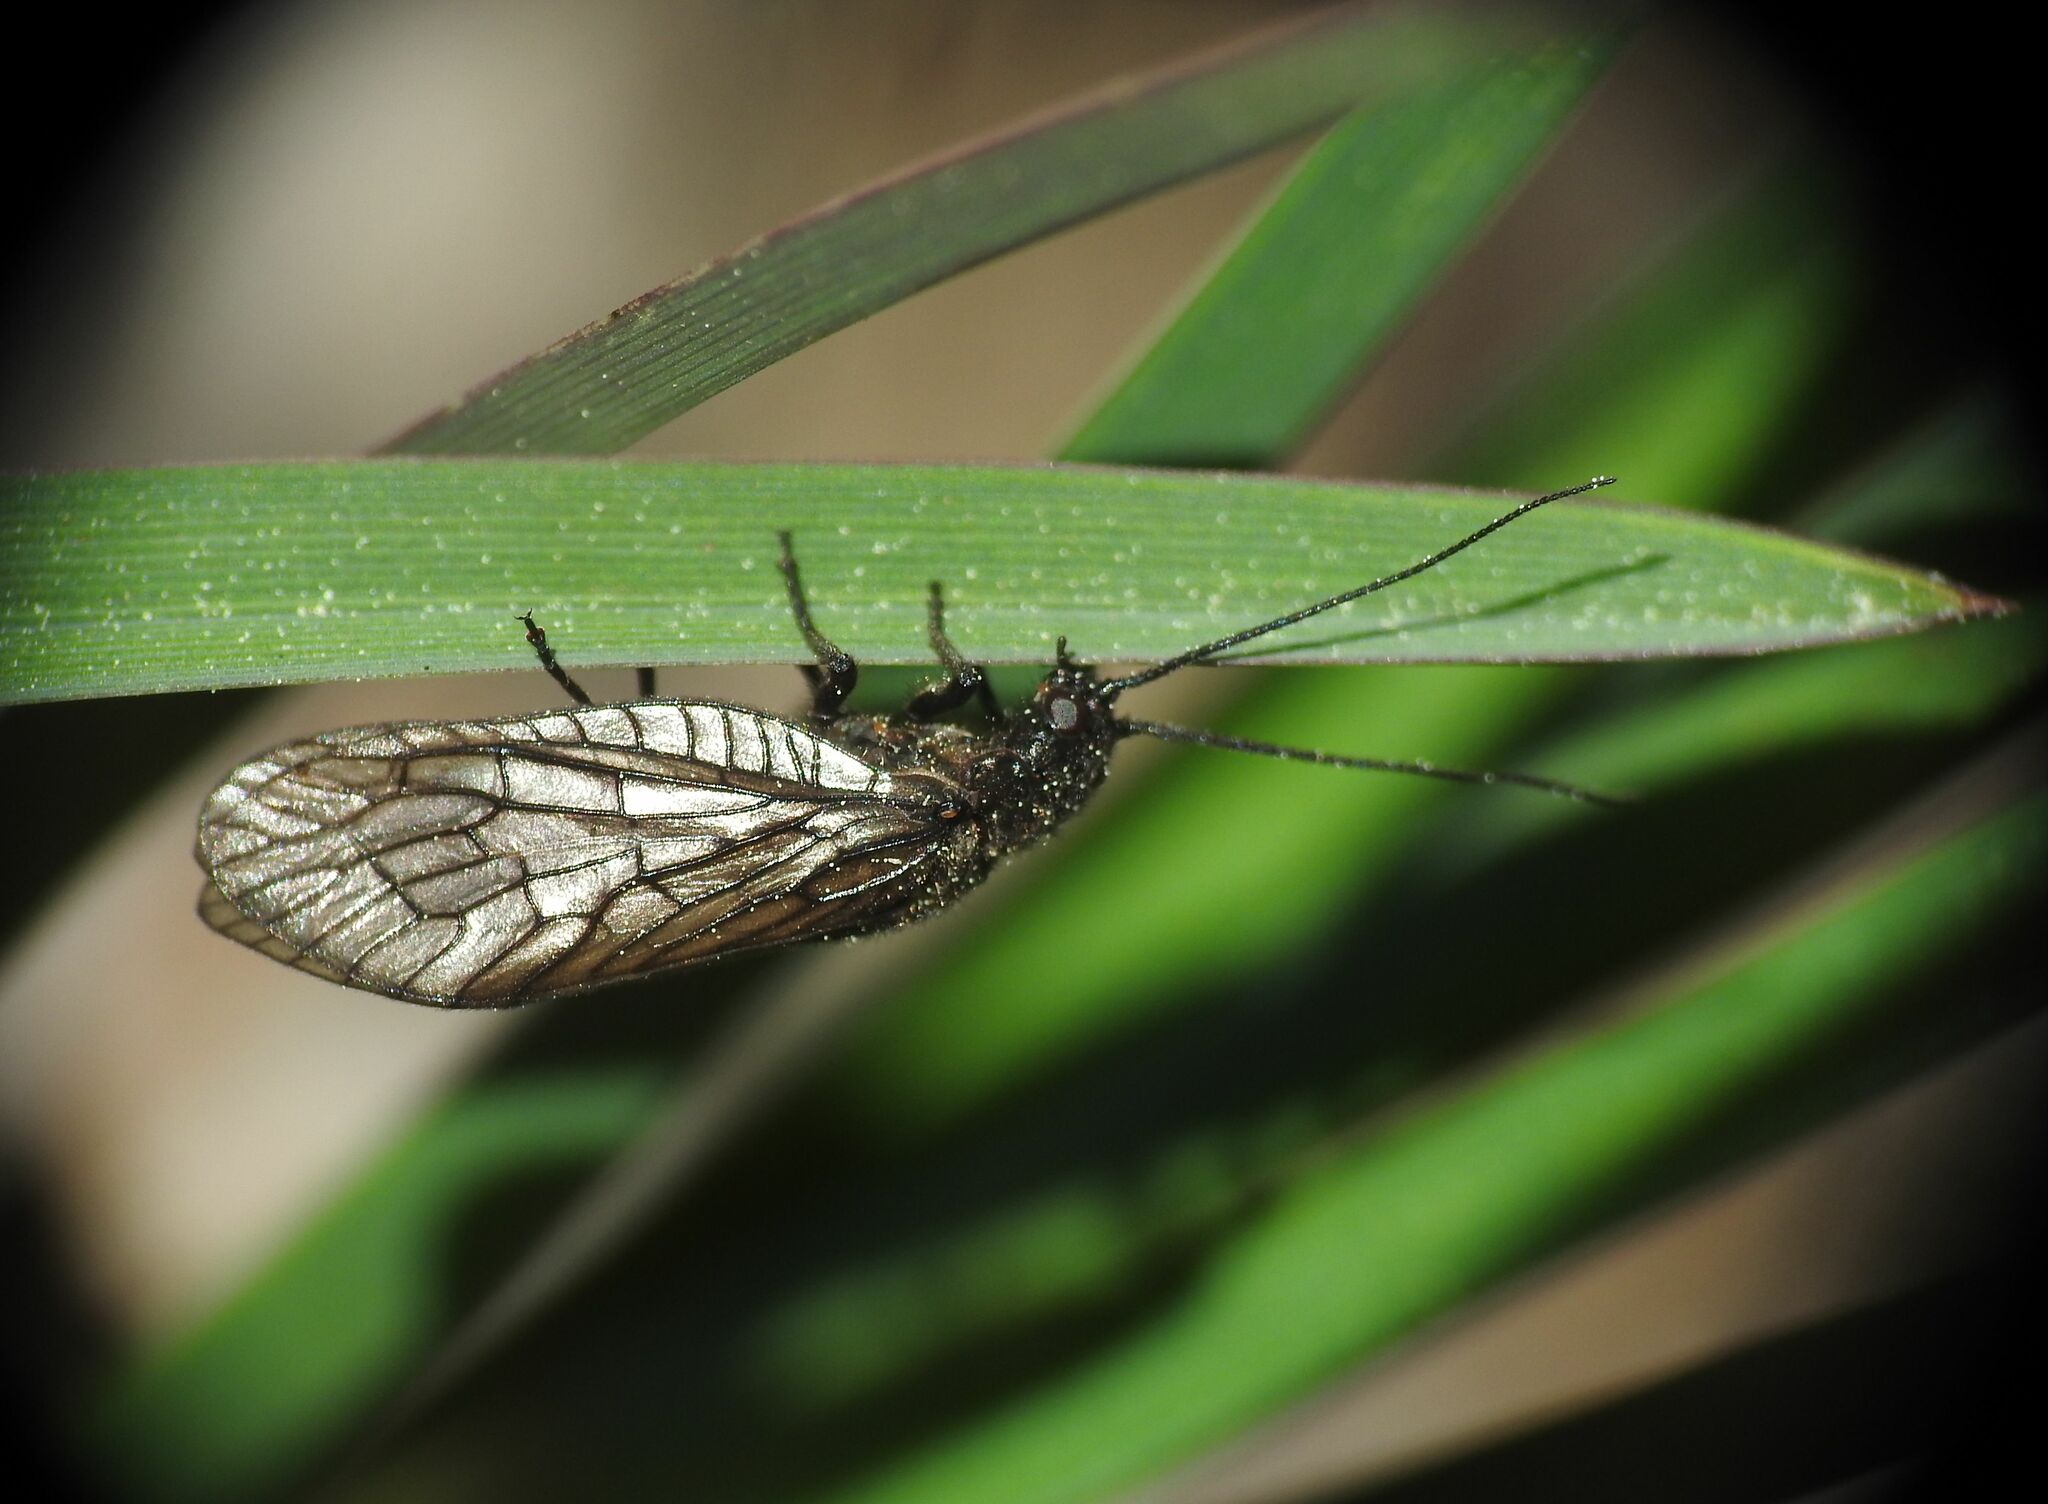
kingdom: Animalia
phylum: Arthropoda
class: Insecta
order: Megaloptera
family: Sialidae
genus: Sialis
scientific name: Sialis
